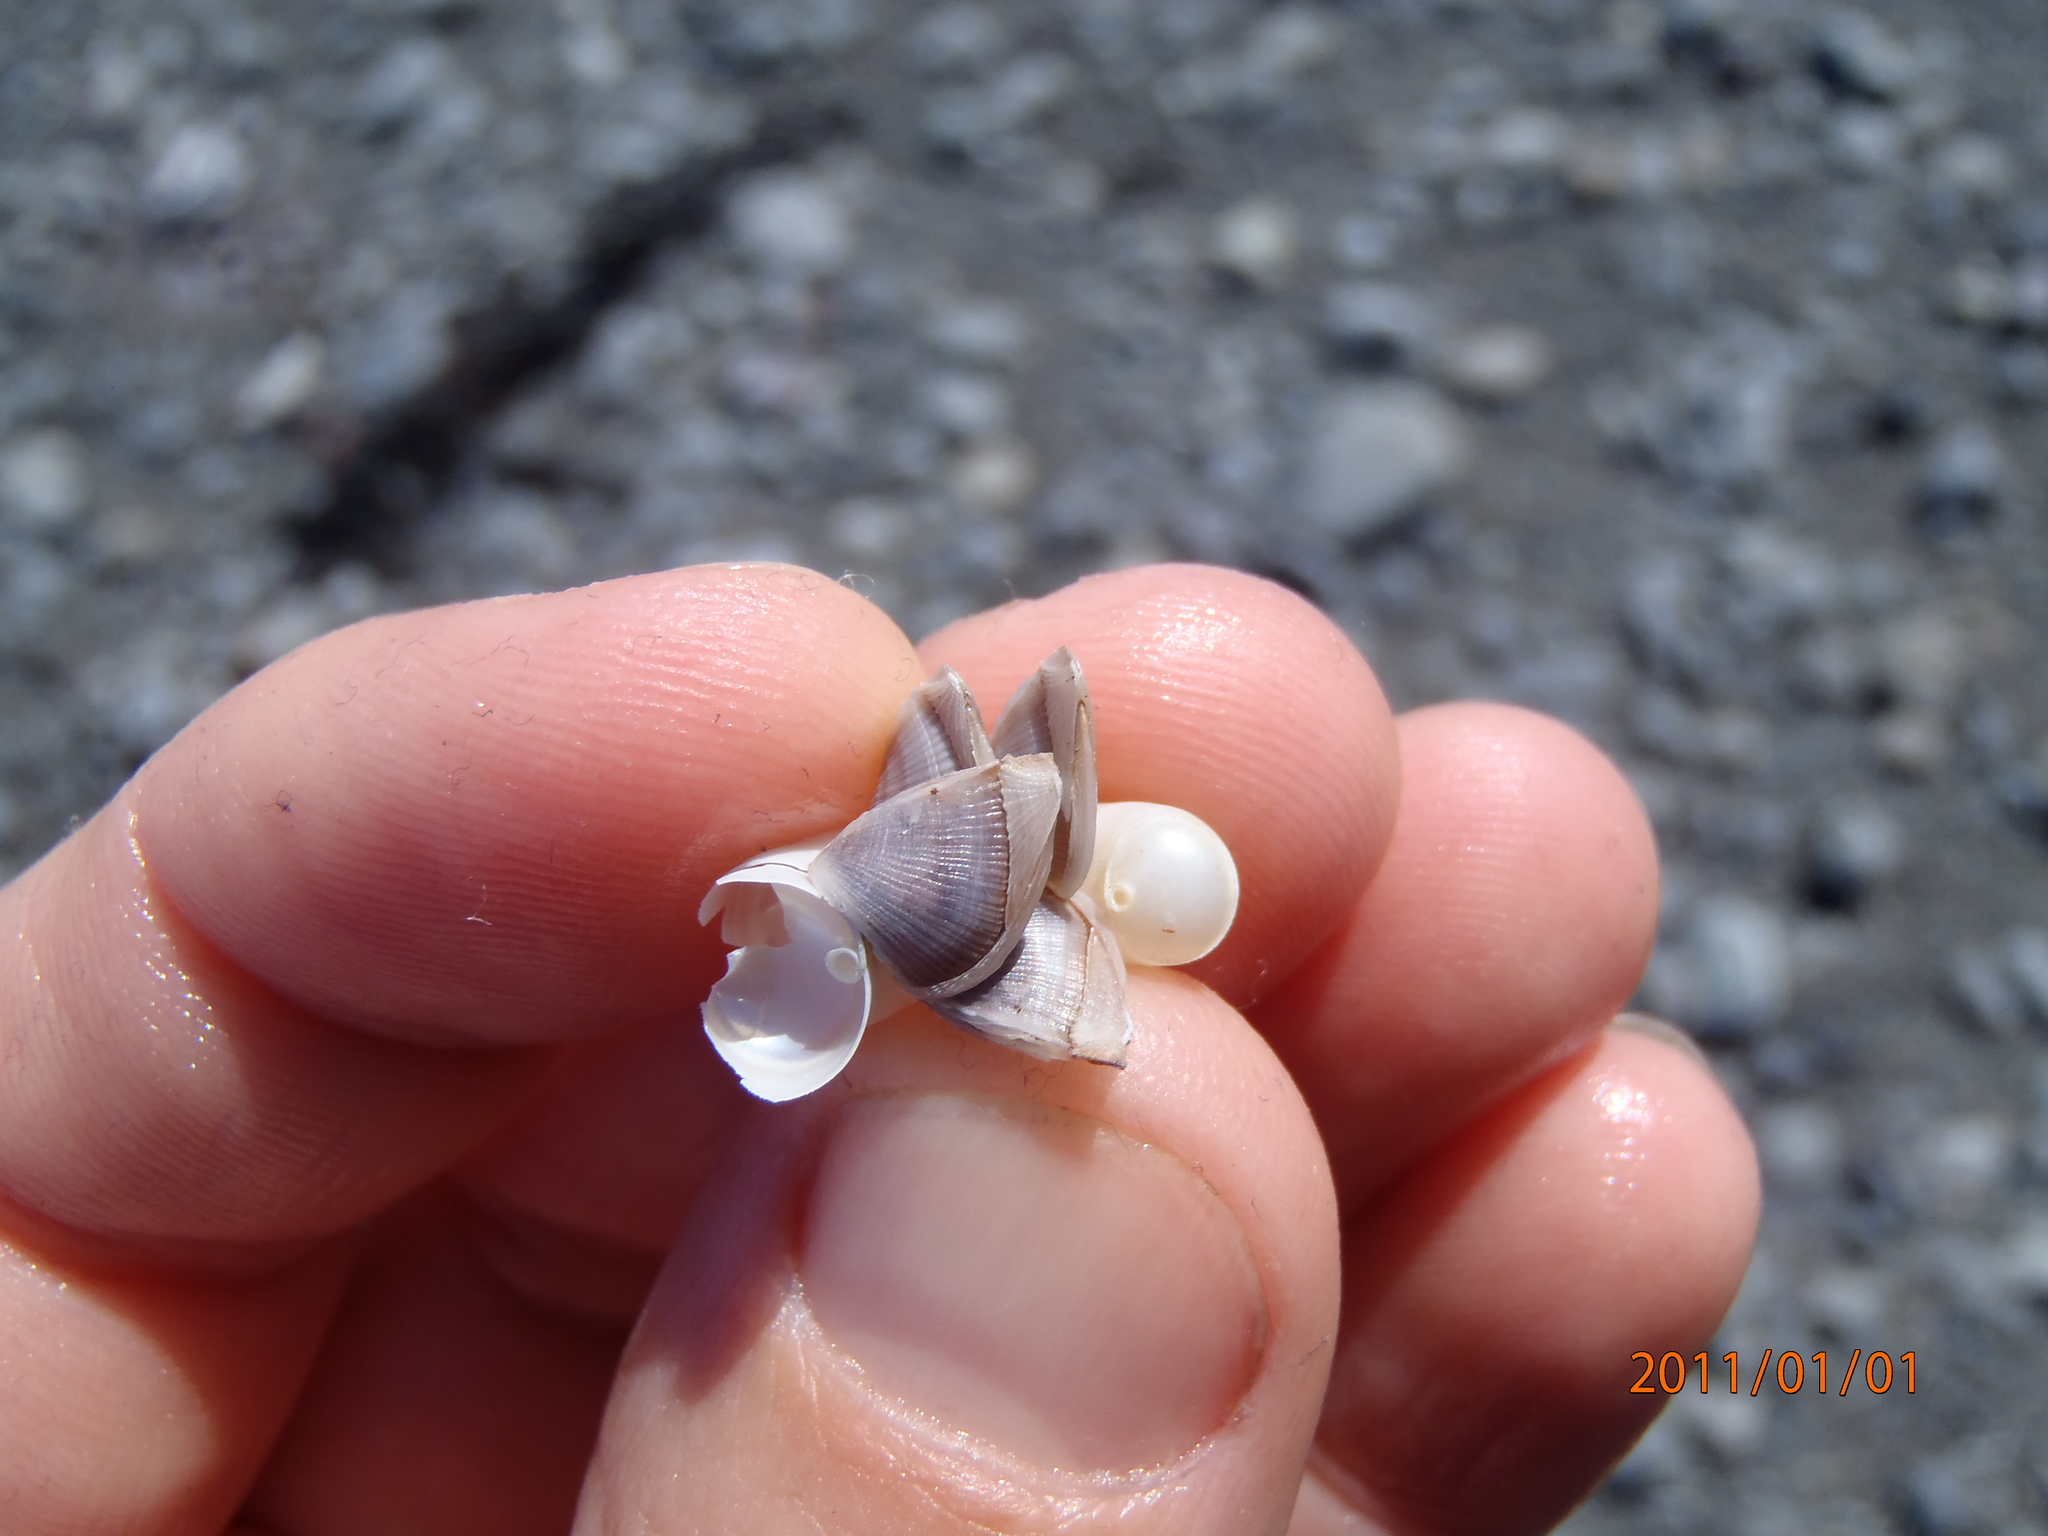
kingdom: Animalia
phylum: Arthropoda
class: Maxillopoda
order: Pedunculata
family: Lepadidae
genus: Lepas
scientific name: Lepas pectinata
